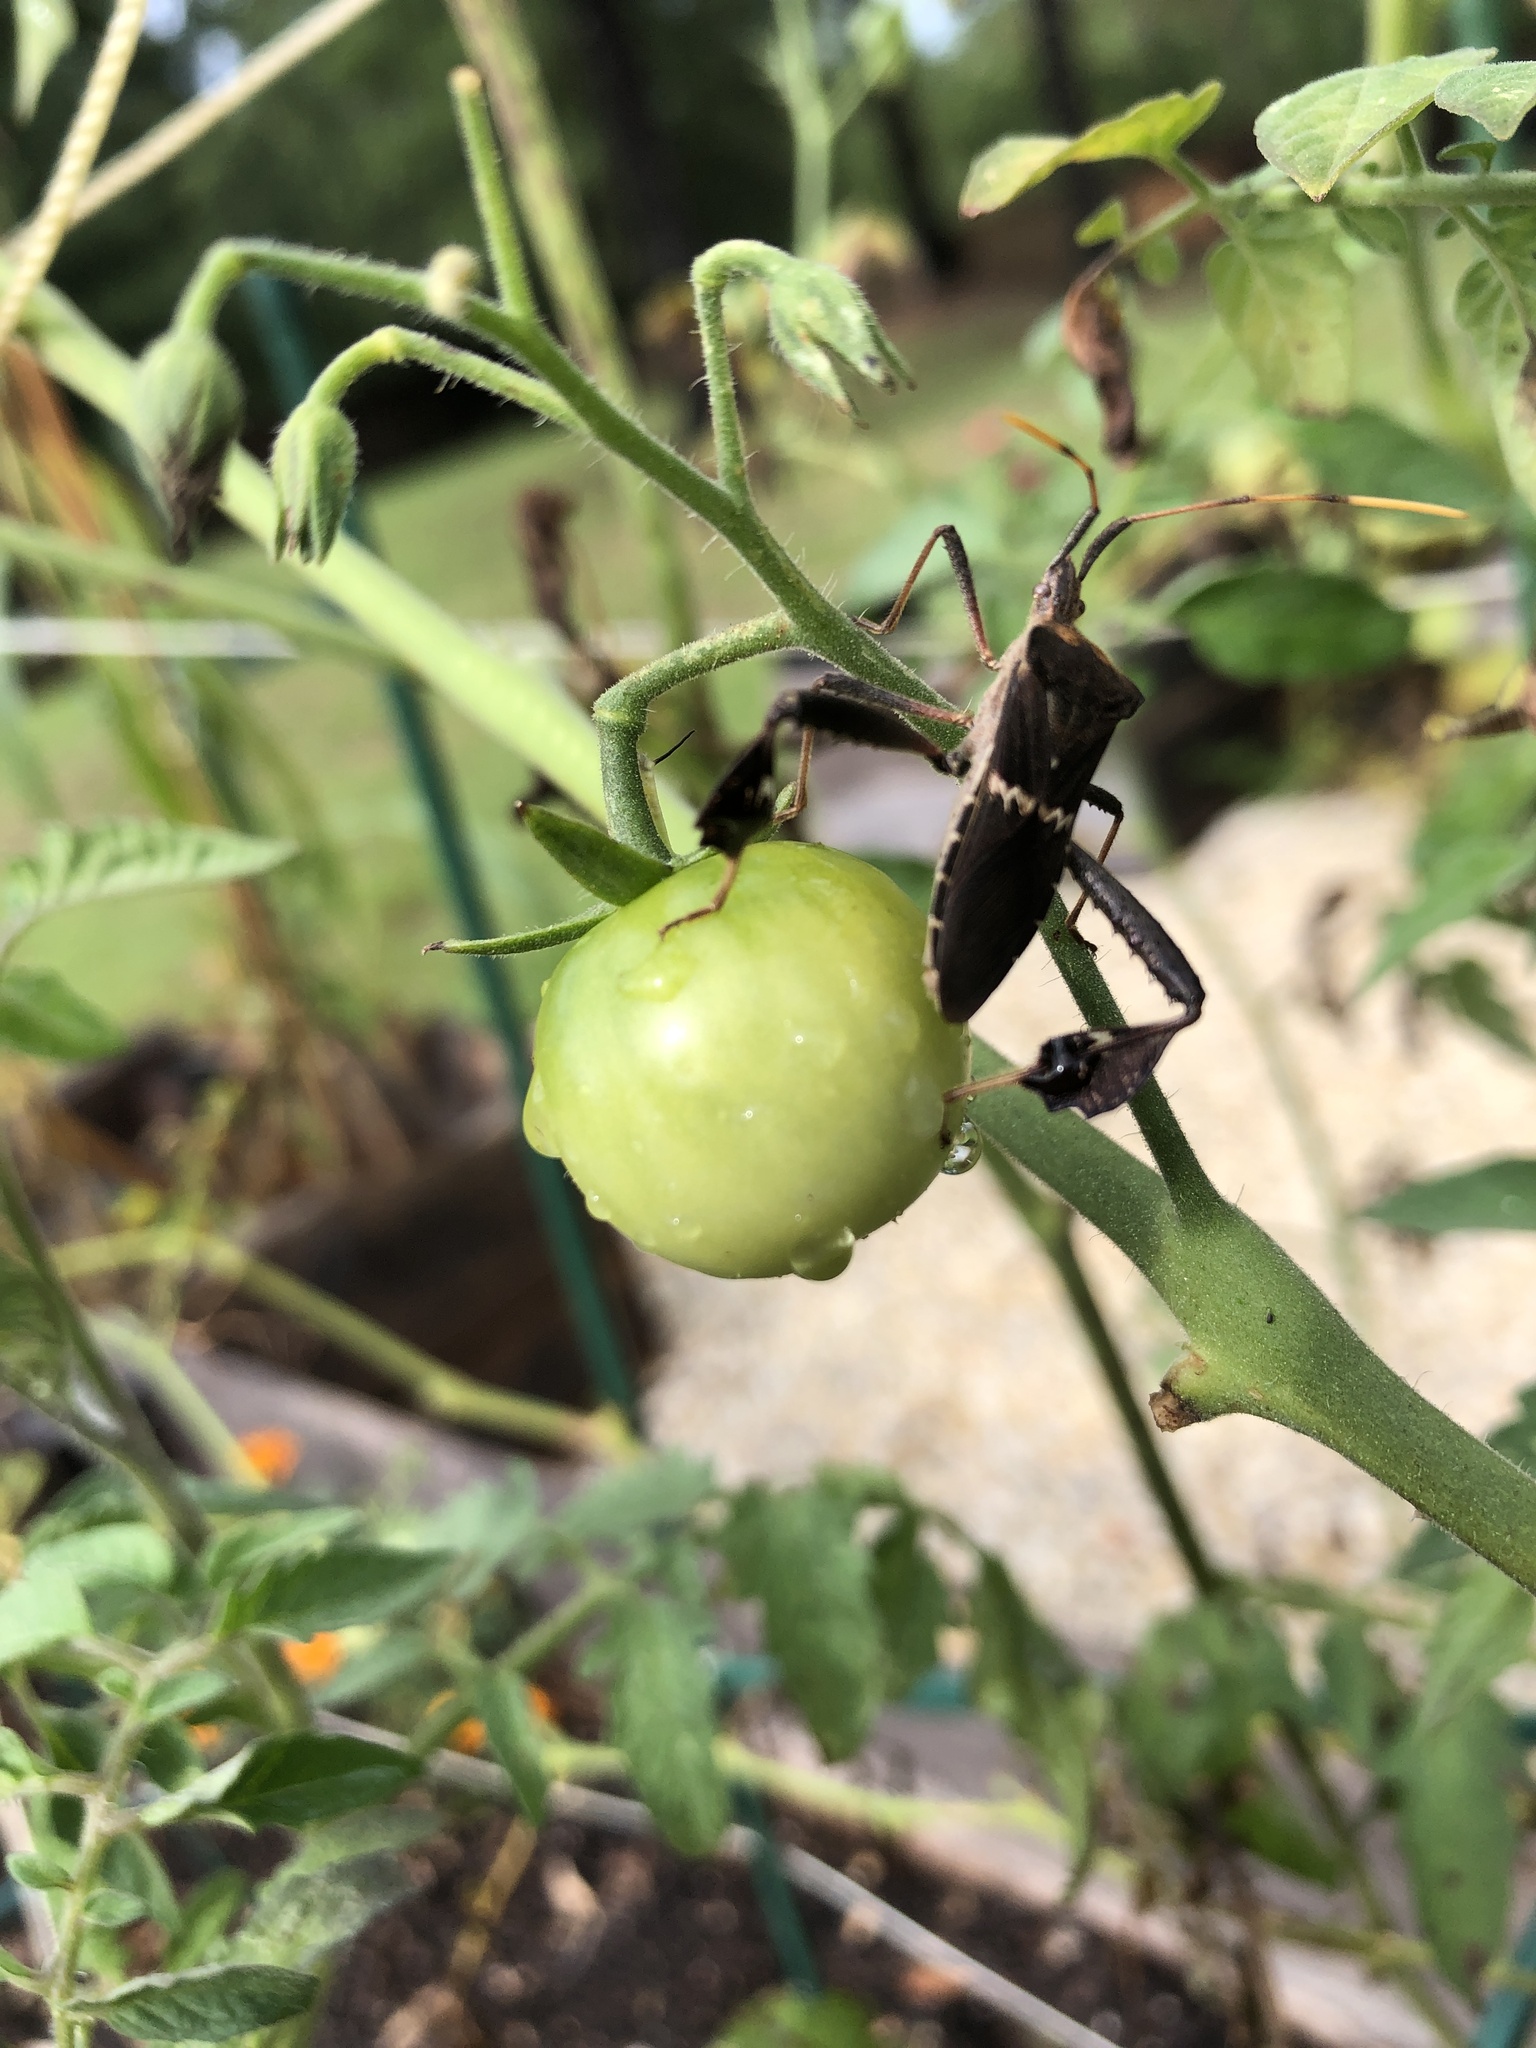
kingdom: Animalia
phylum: Arthropoda
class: Insecta
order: Hemiptera
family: Coreidae
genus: Leptoglossus
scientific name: Leptoglossus zonatus
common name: Large-legged bug
